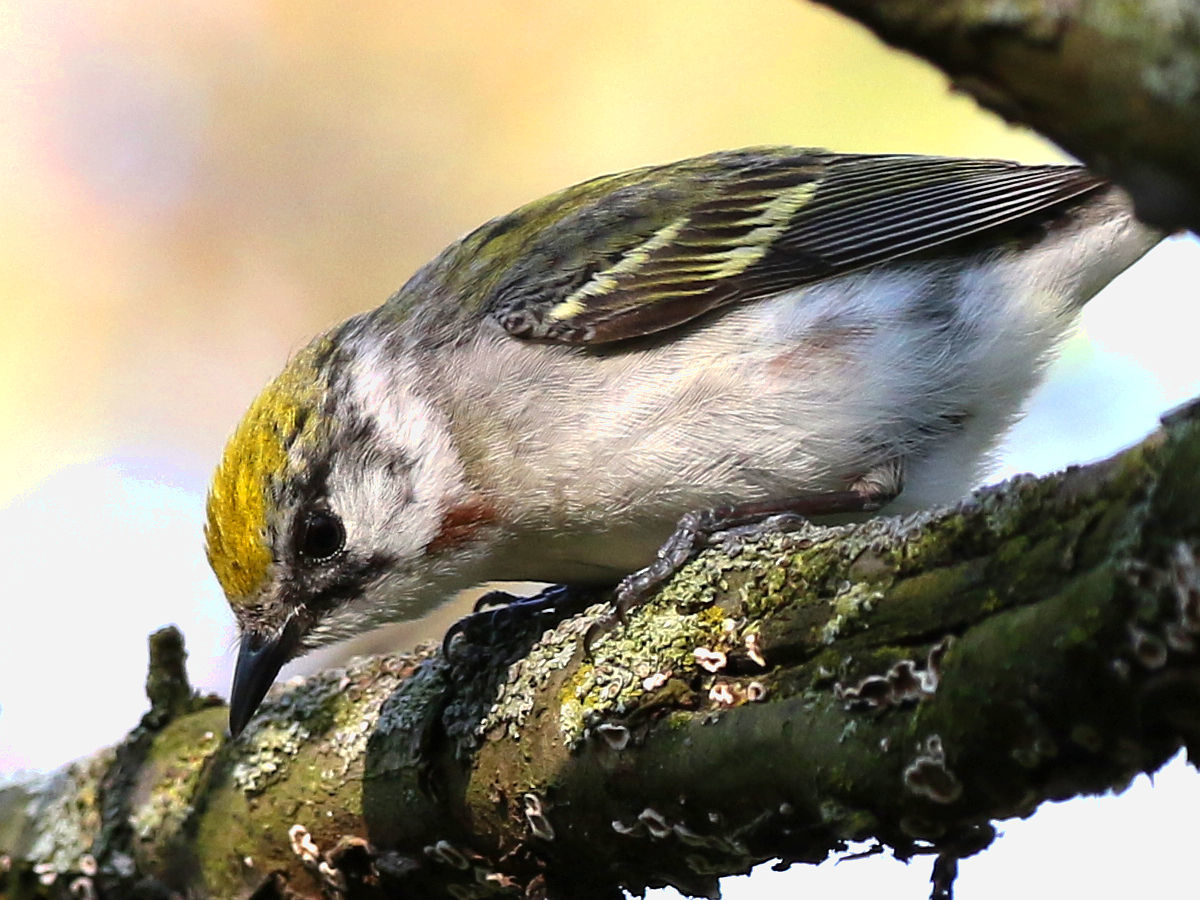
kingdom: Animalia
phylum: Chordata
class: Aves
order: Passeriformes
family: Parulidae
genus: Setophaga
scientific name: Setophaga pensylvanica
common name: Chestnut-sided warbler
